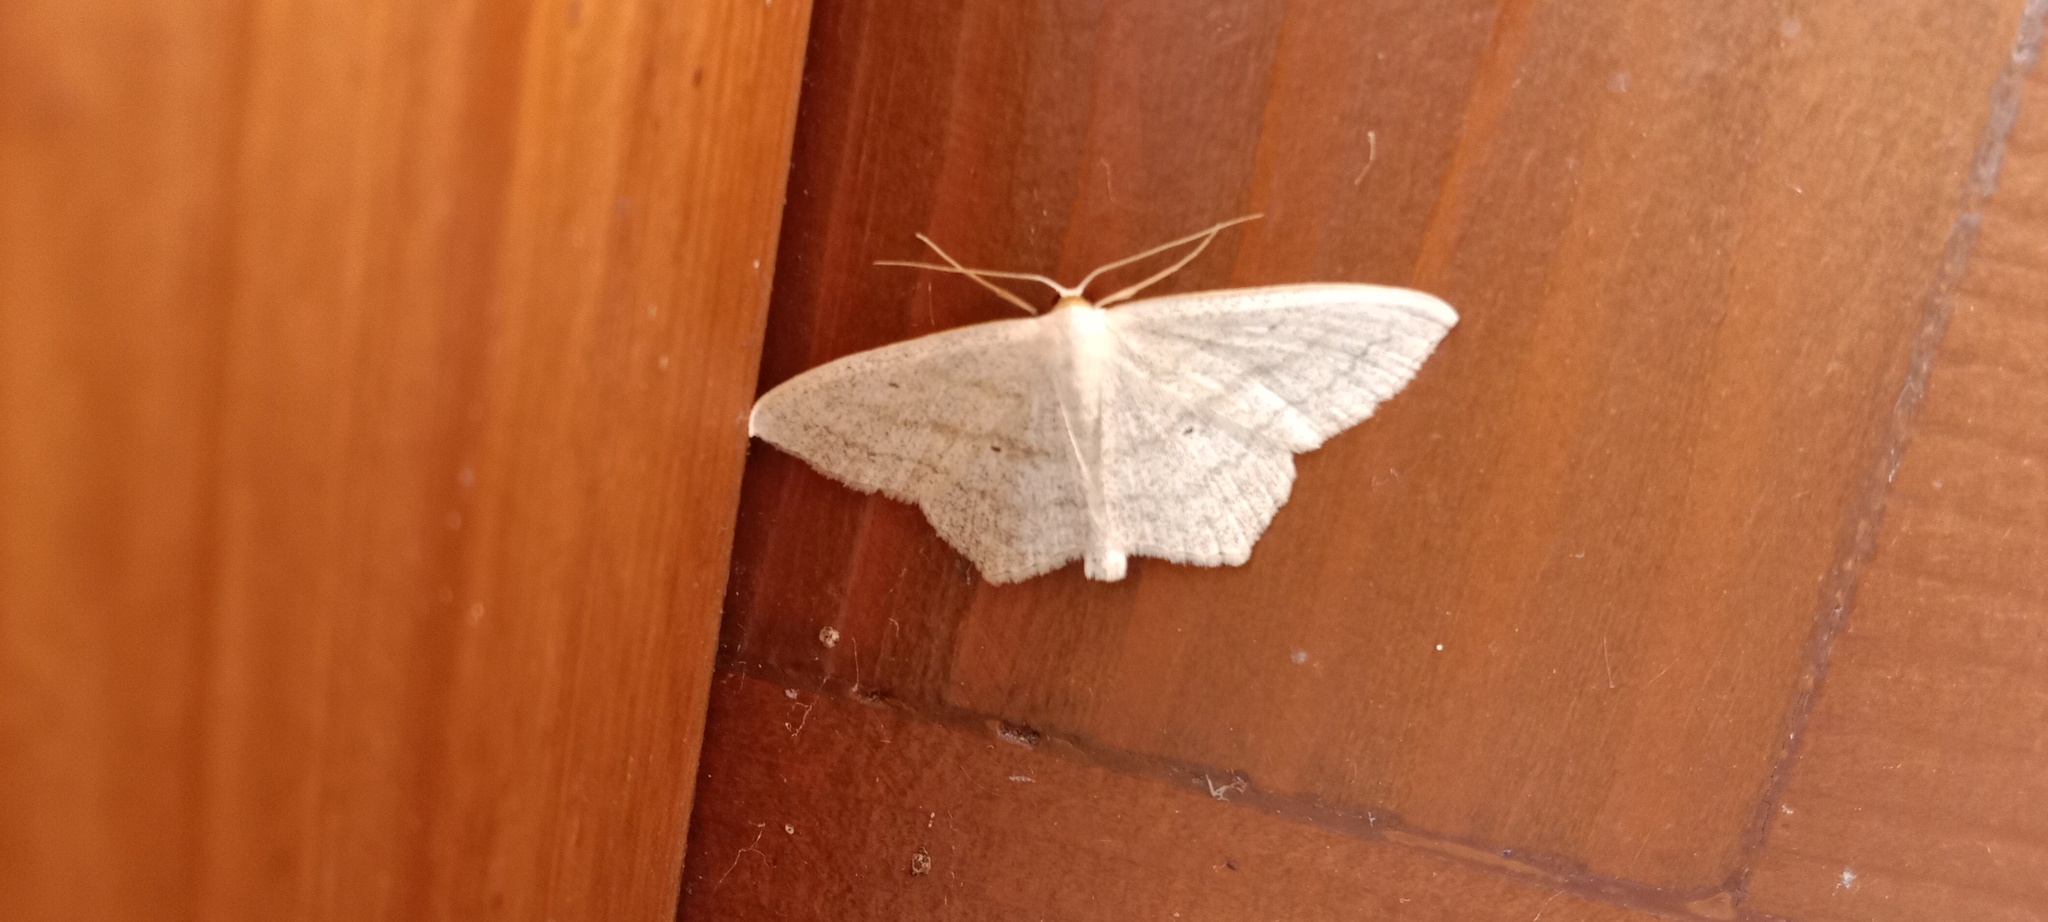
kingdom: Animalia
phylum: Arthropoda
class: Insecta
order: Lepidoptera
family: Geometridae
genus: Scopula
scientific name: Scopula nigropunctata
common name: Sub-angled wave
